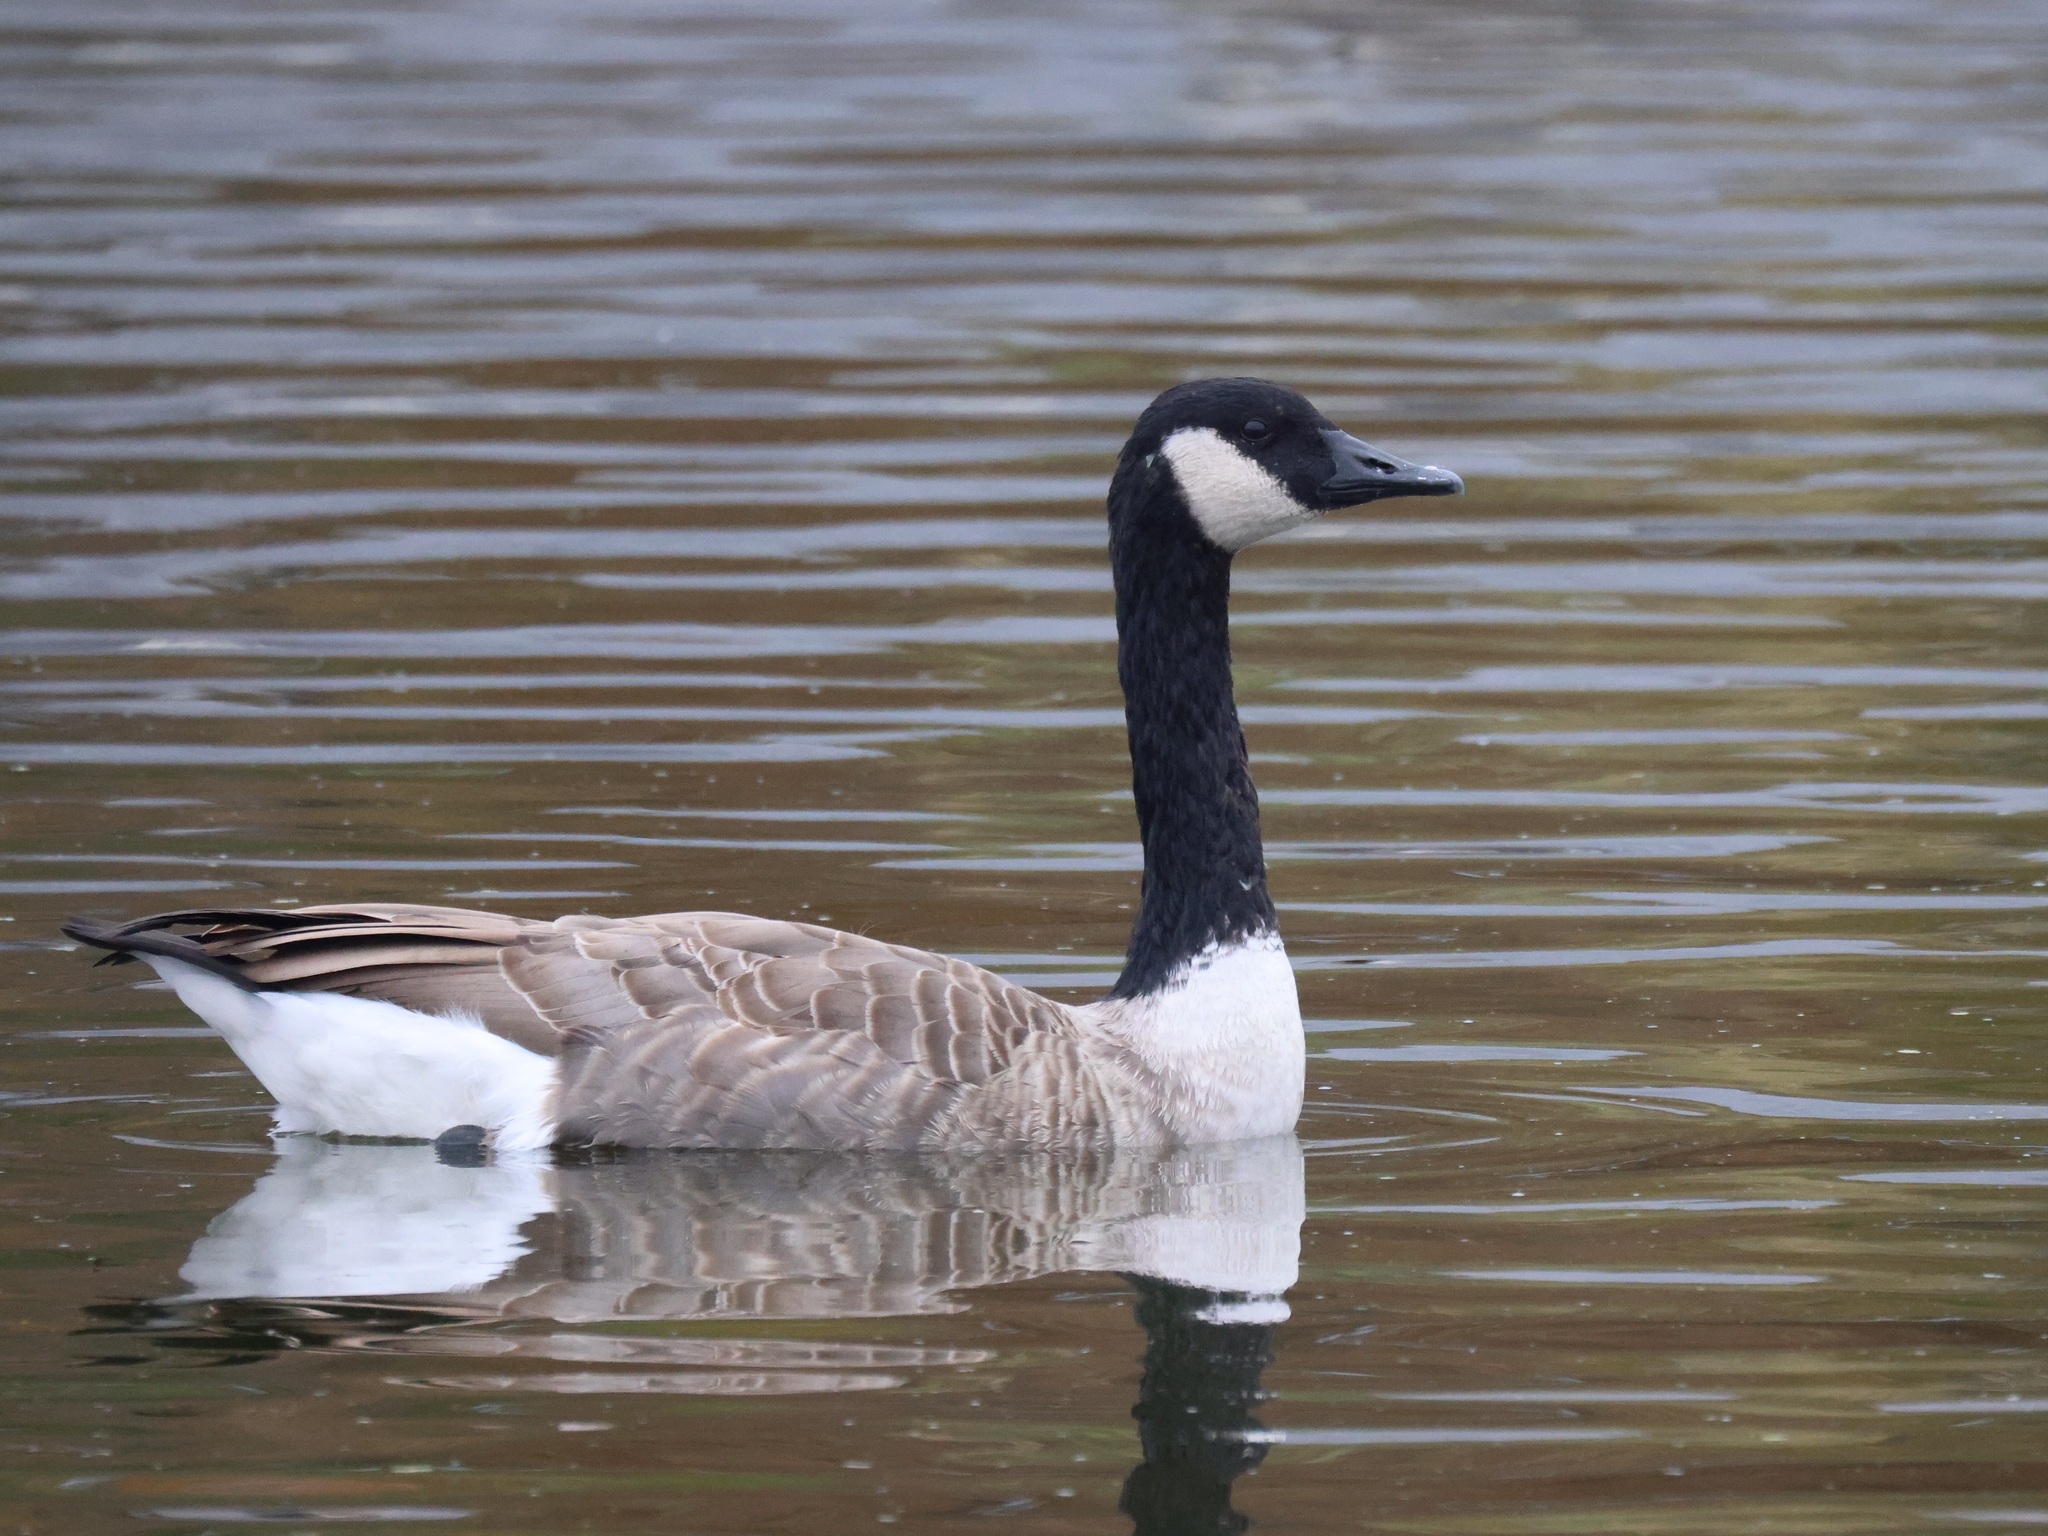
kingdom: Animalia
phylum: Chordata
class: Aves
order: Anseriformes
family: Anatidae
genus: Branta
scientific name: Branta canadensis
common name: Canada goose
